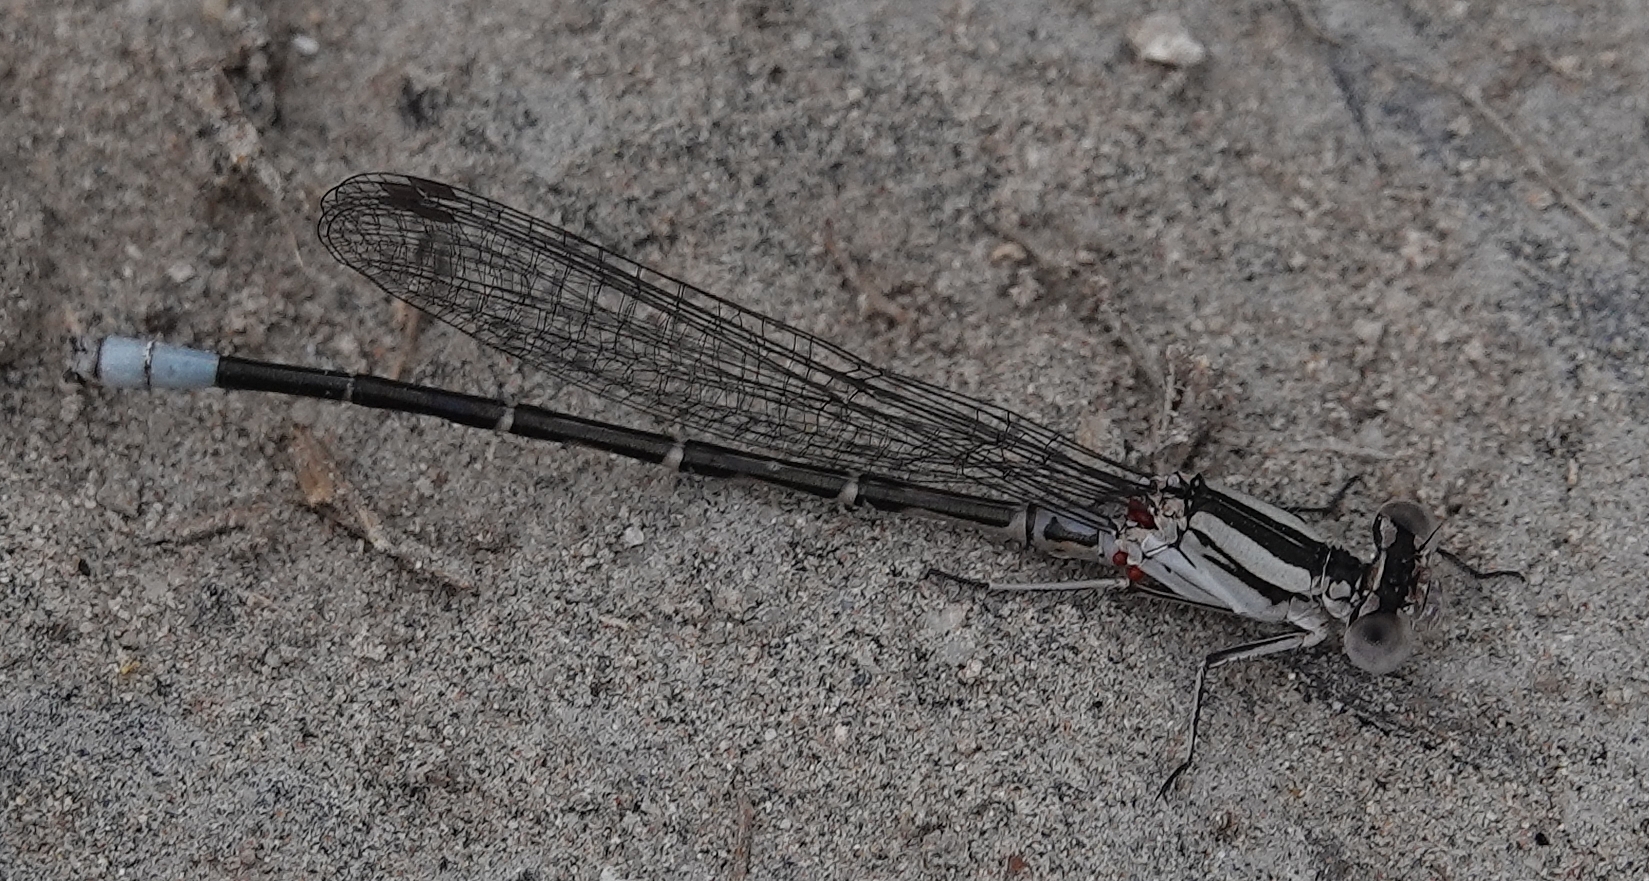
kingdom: Animalia
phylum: Arthropoda
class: Insecta
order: Odonata
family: Coenagrionidae
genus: Argia
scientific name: Argia alberta
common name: Paiute dancer
